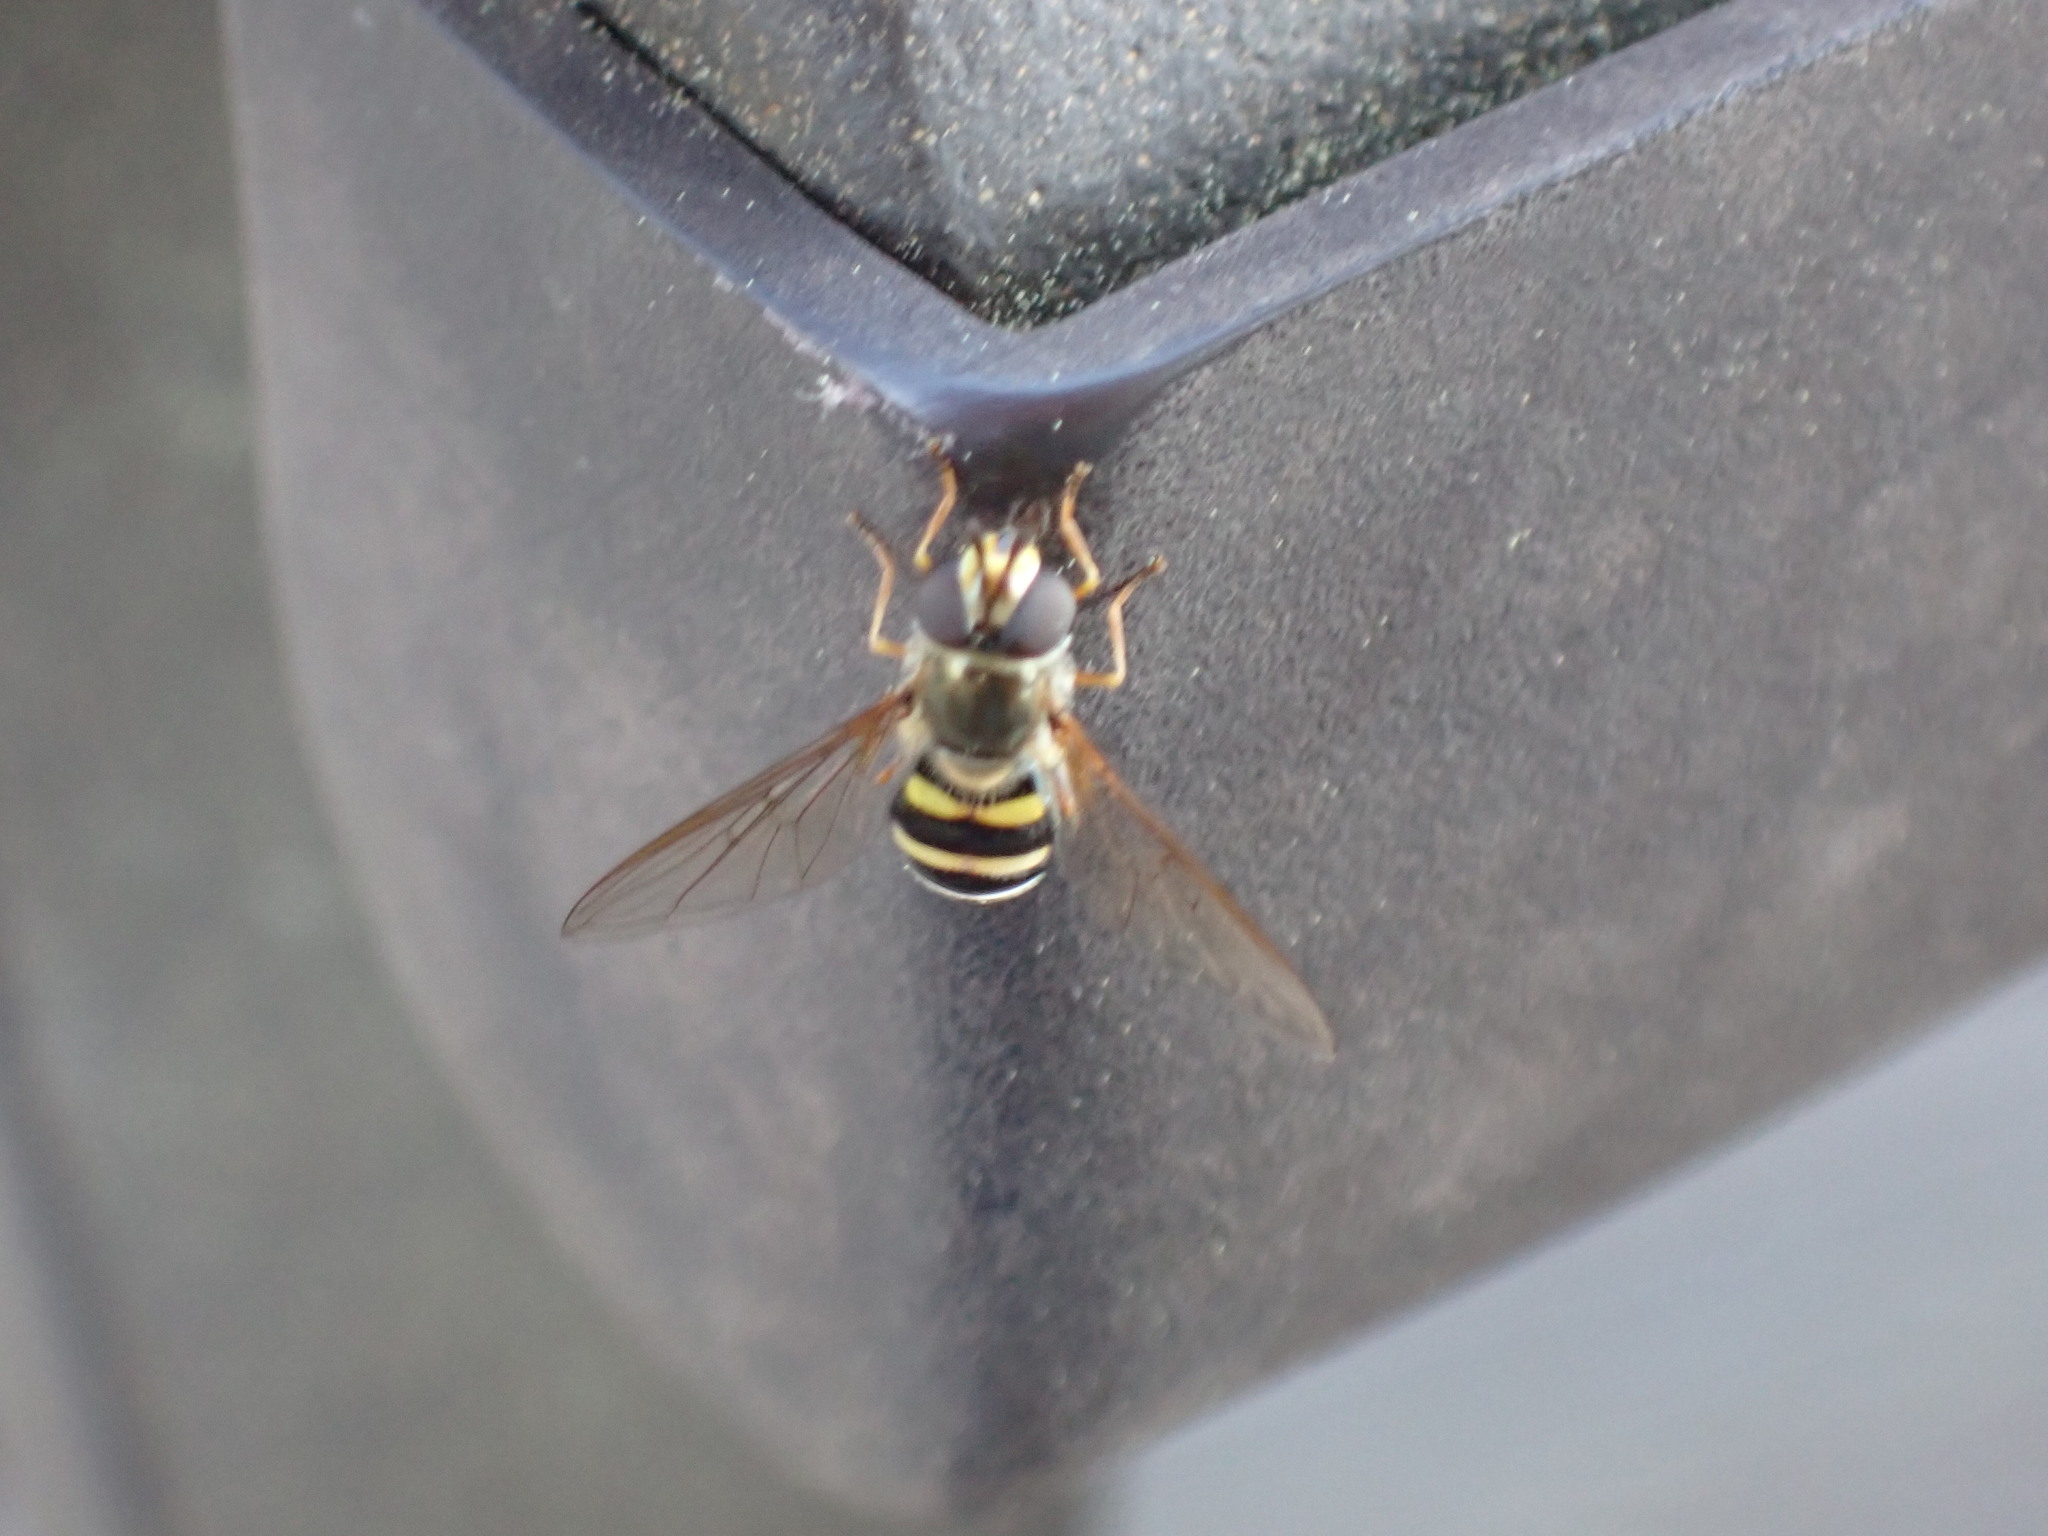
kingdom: Animalia
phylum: Arthropoda
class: Insecta
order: Diptera
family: Syrphidae
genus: Eupeodes
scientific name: Eupeodes
